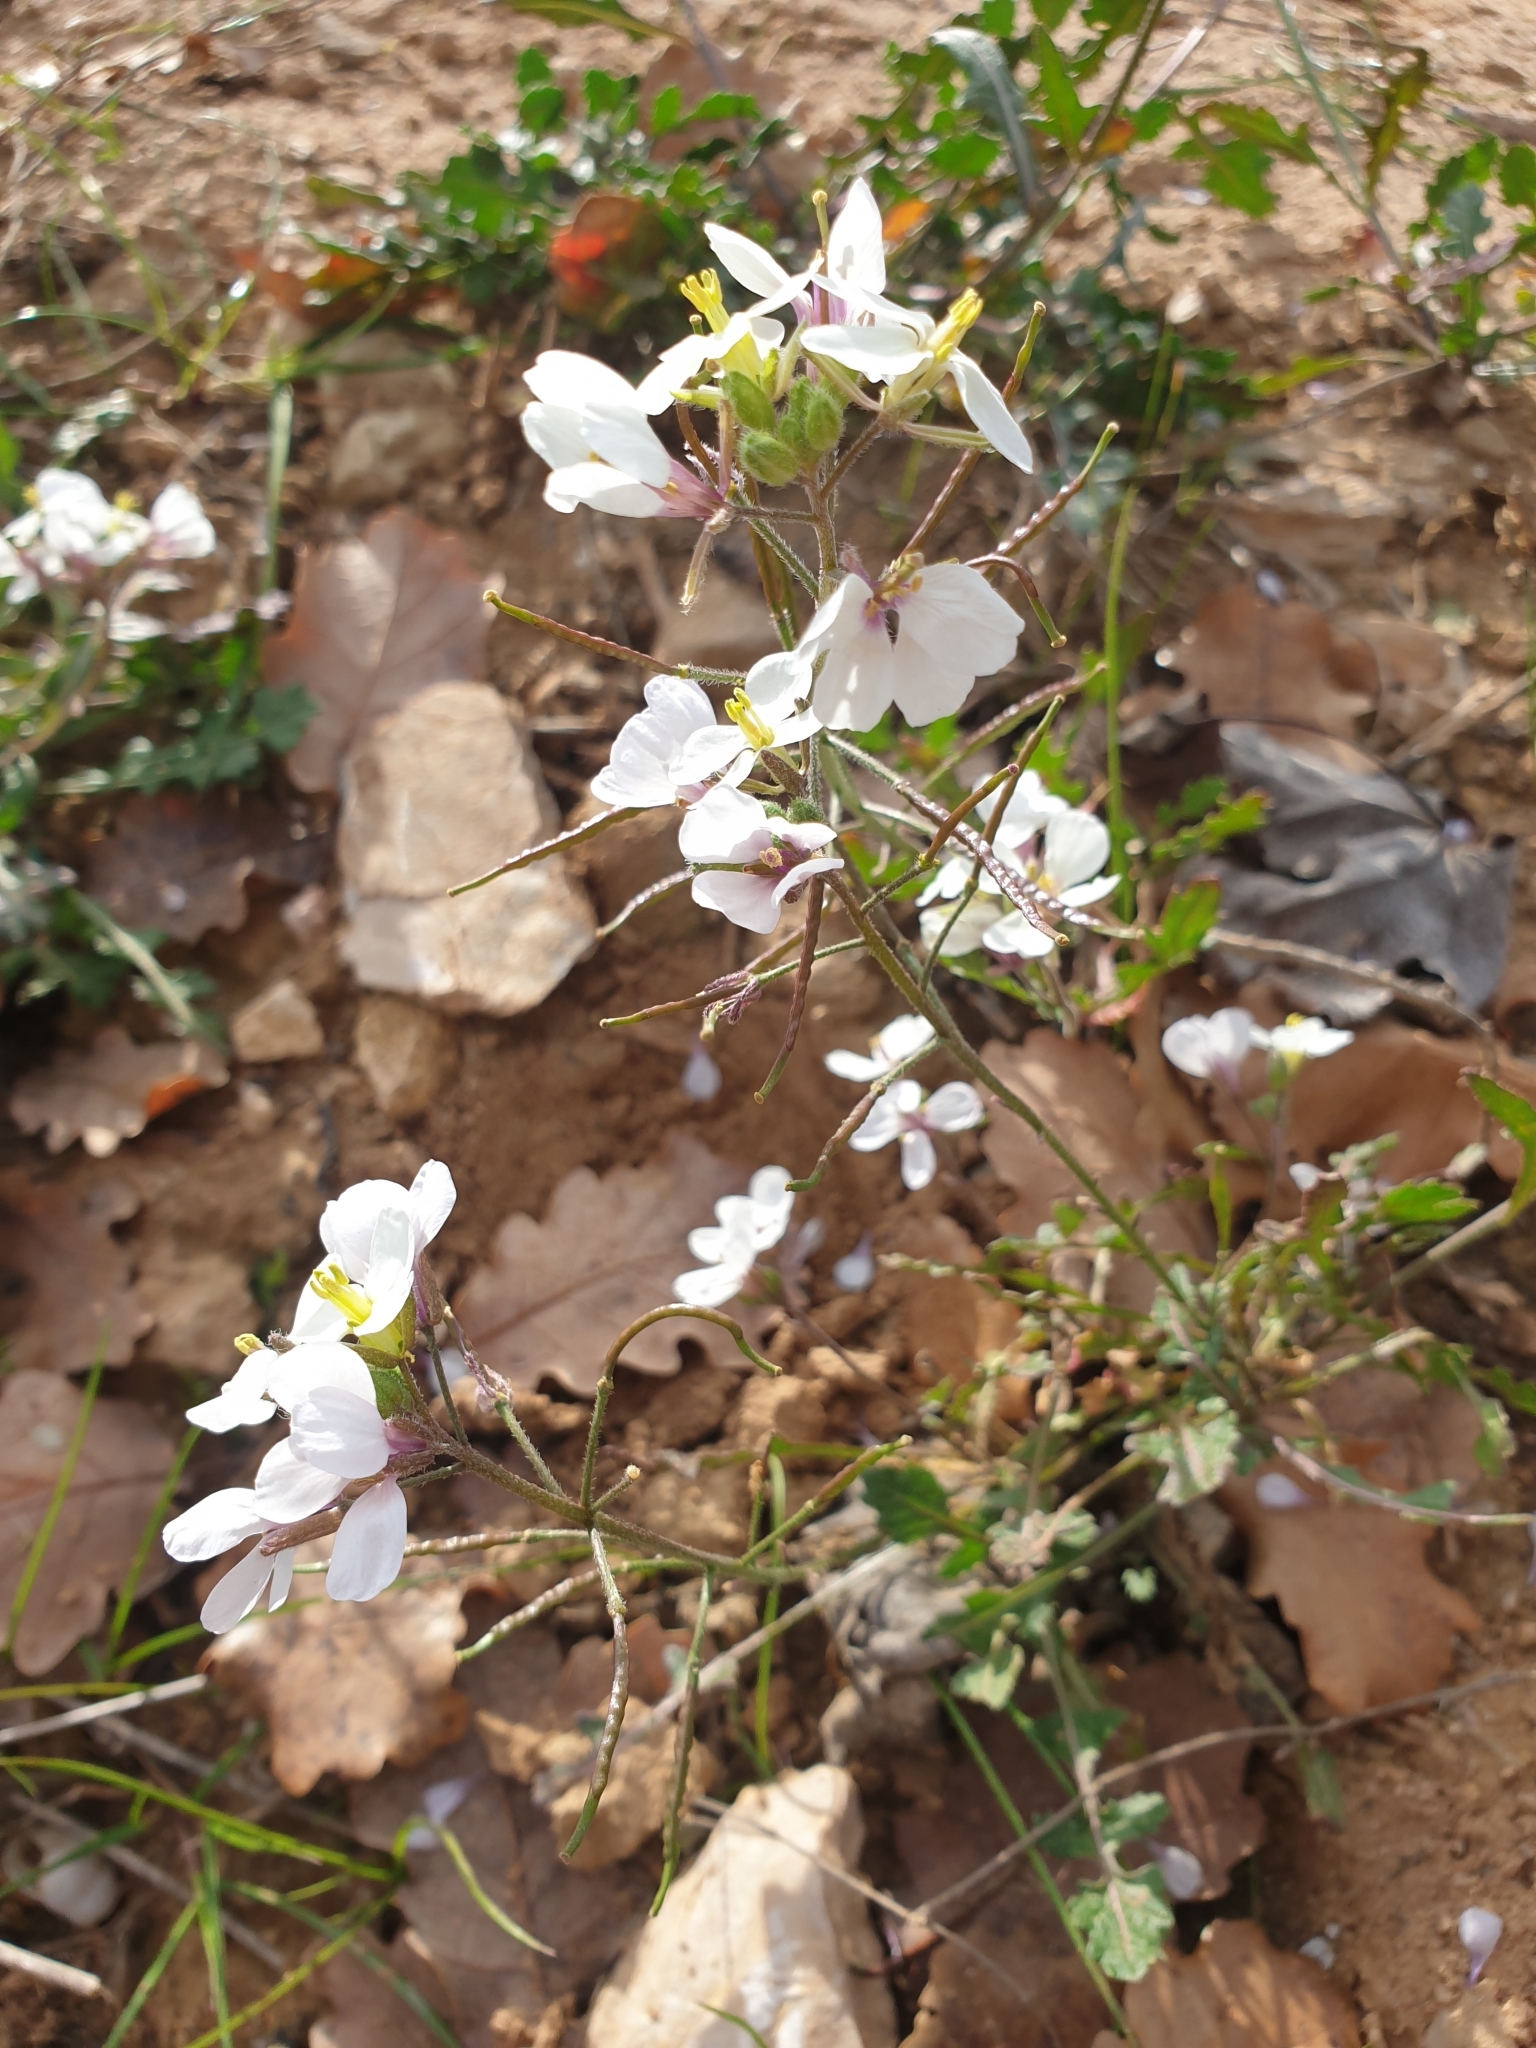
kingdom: Plantae
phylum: Tracheophyta
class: Magnoliopsida
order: Brassicales
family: Brassicaceae
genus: Diplotaxis
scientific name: Diplotaxis erucoides
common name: White rocket
